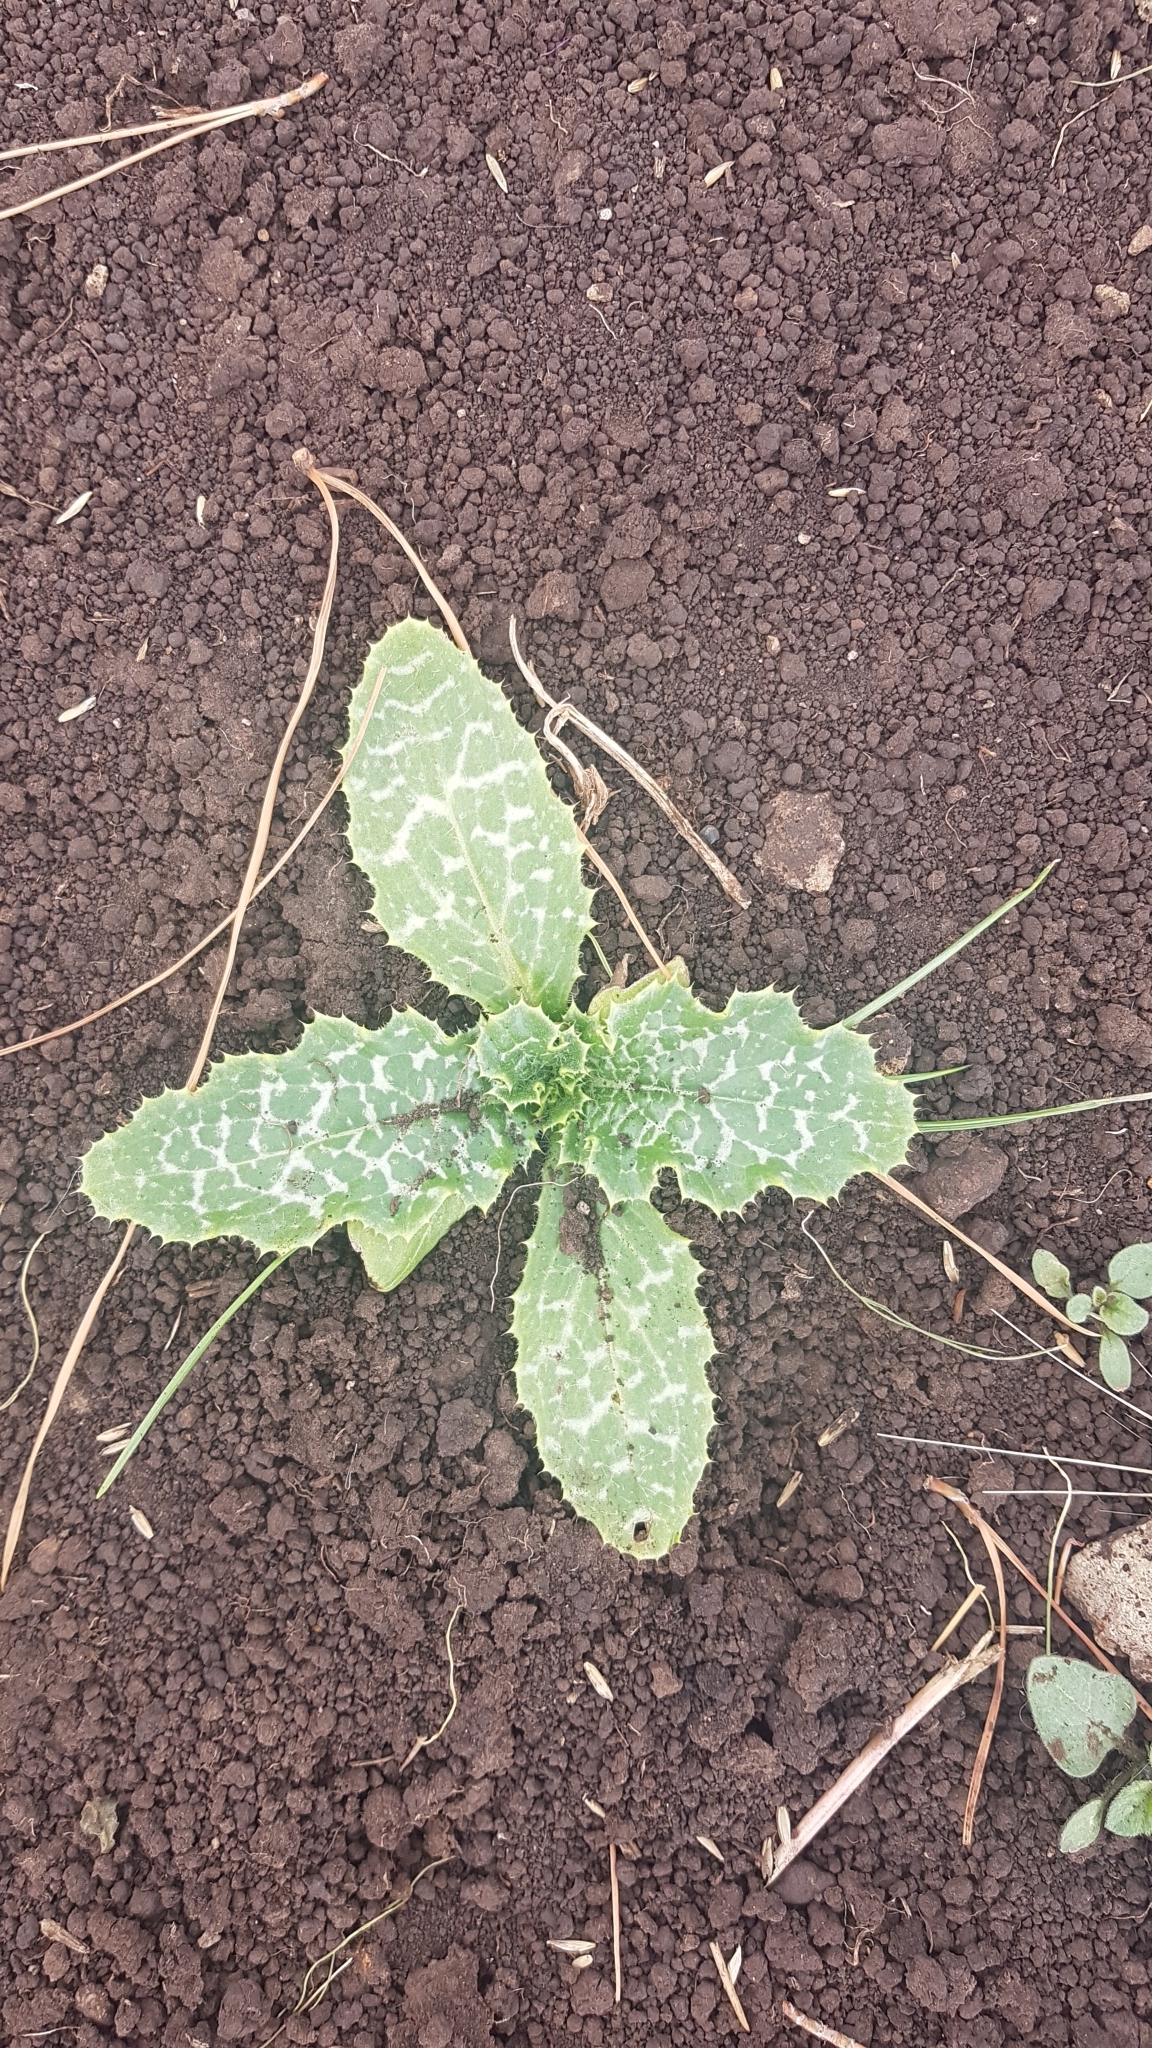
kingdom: Plantae
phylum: Tracheophyta
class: Magnoliopsida
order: Asterales
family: Asteraceae
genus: Silybum
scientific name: Silybum marianum
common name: Milk thistle
